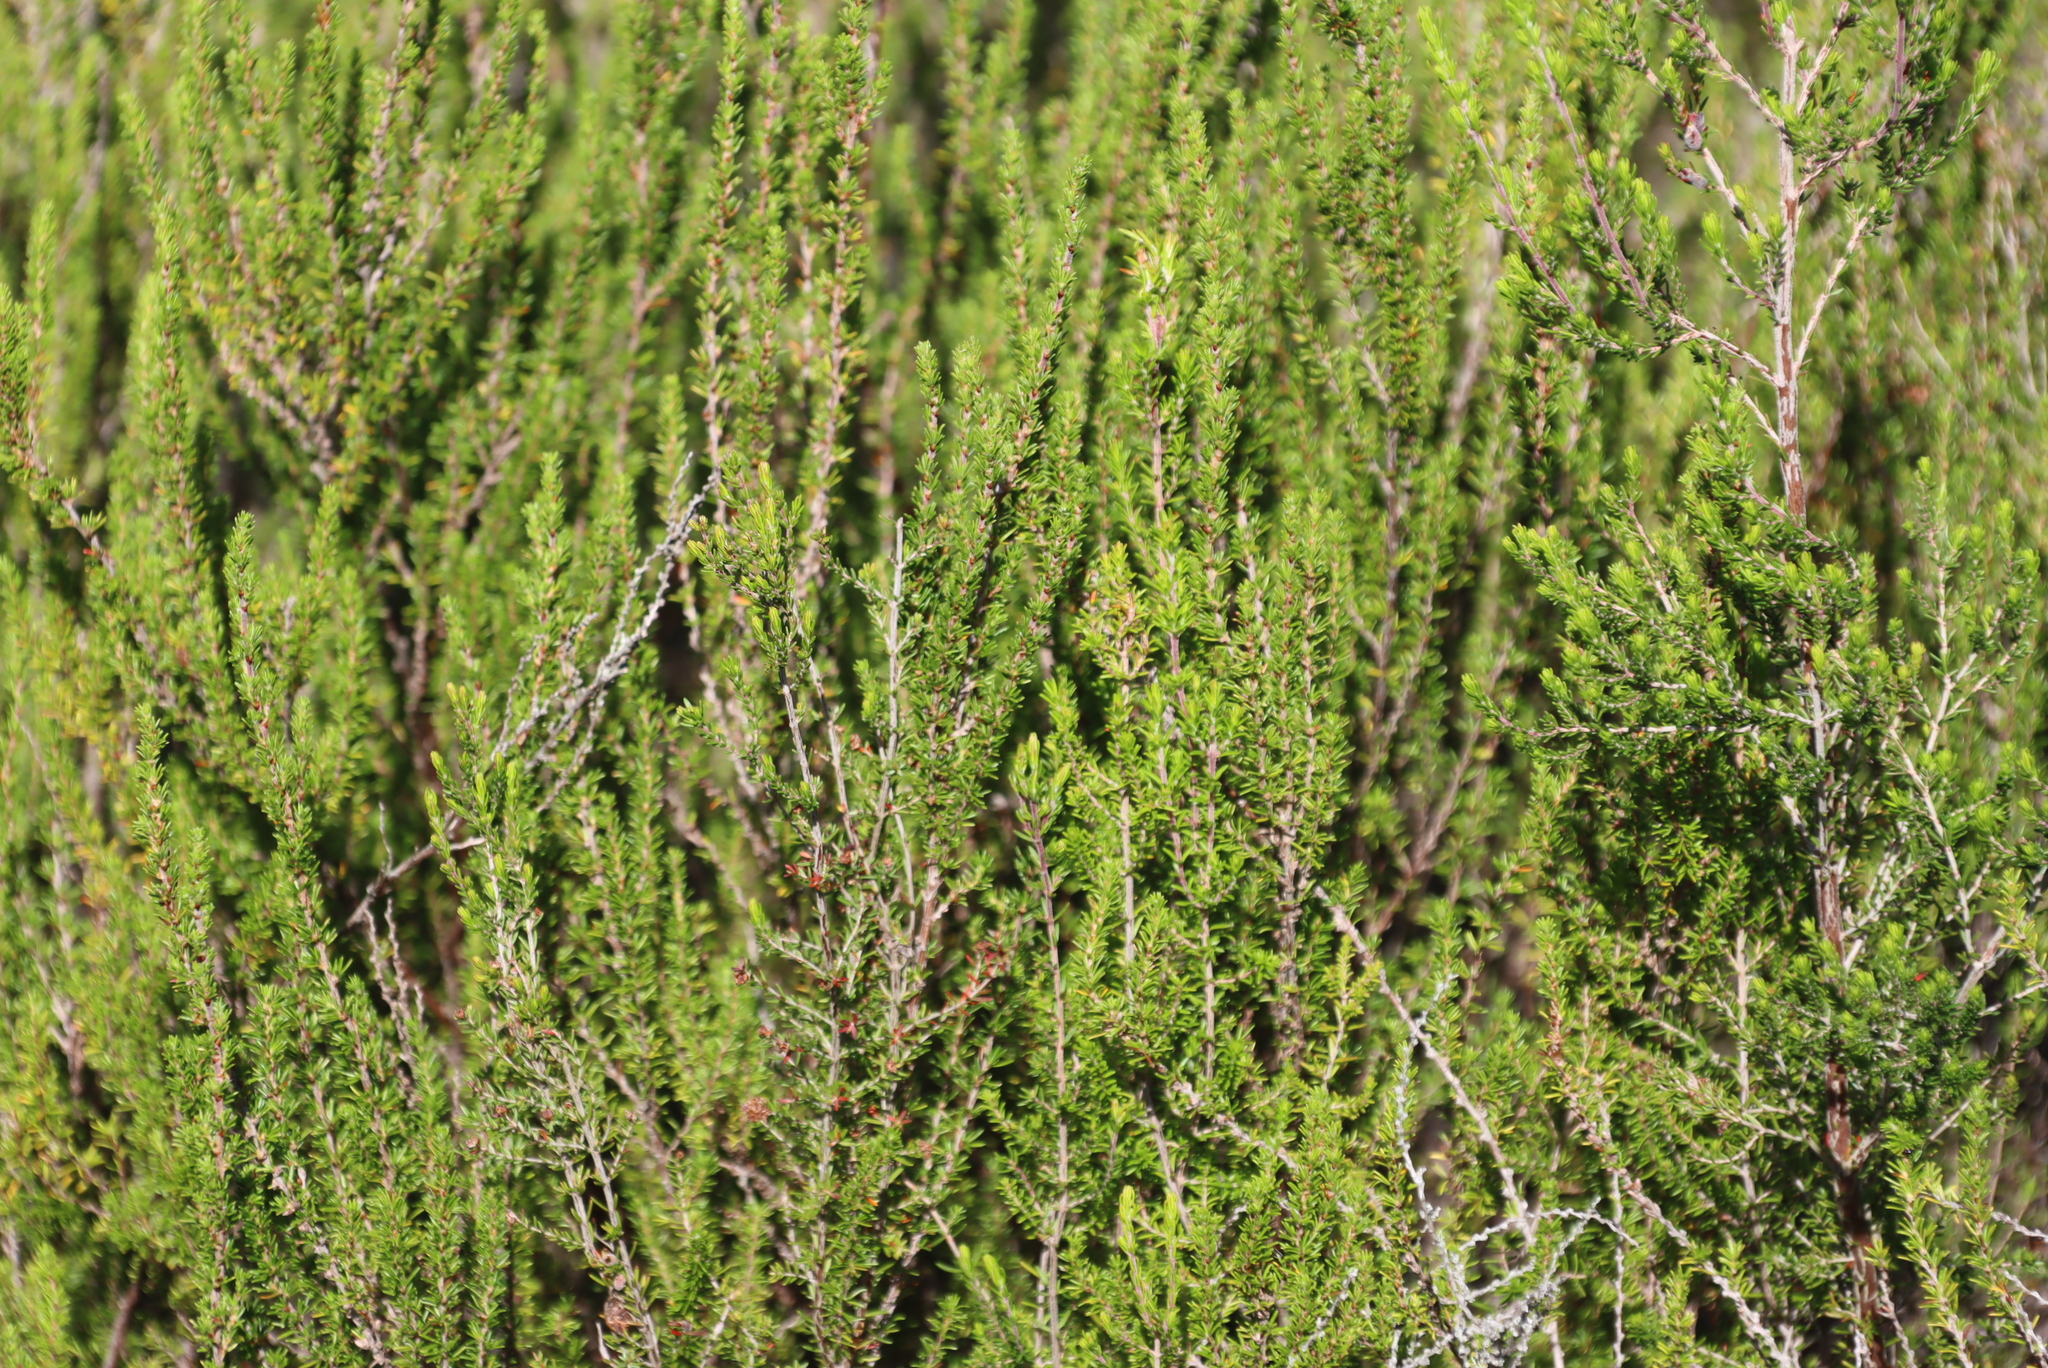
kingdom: Plantae
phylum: Tracheophyta
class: Magnoliopsida
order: Rosales
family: Rosaceae
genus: Cliffortia
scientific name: Cliffortia linearifolia
